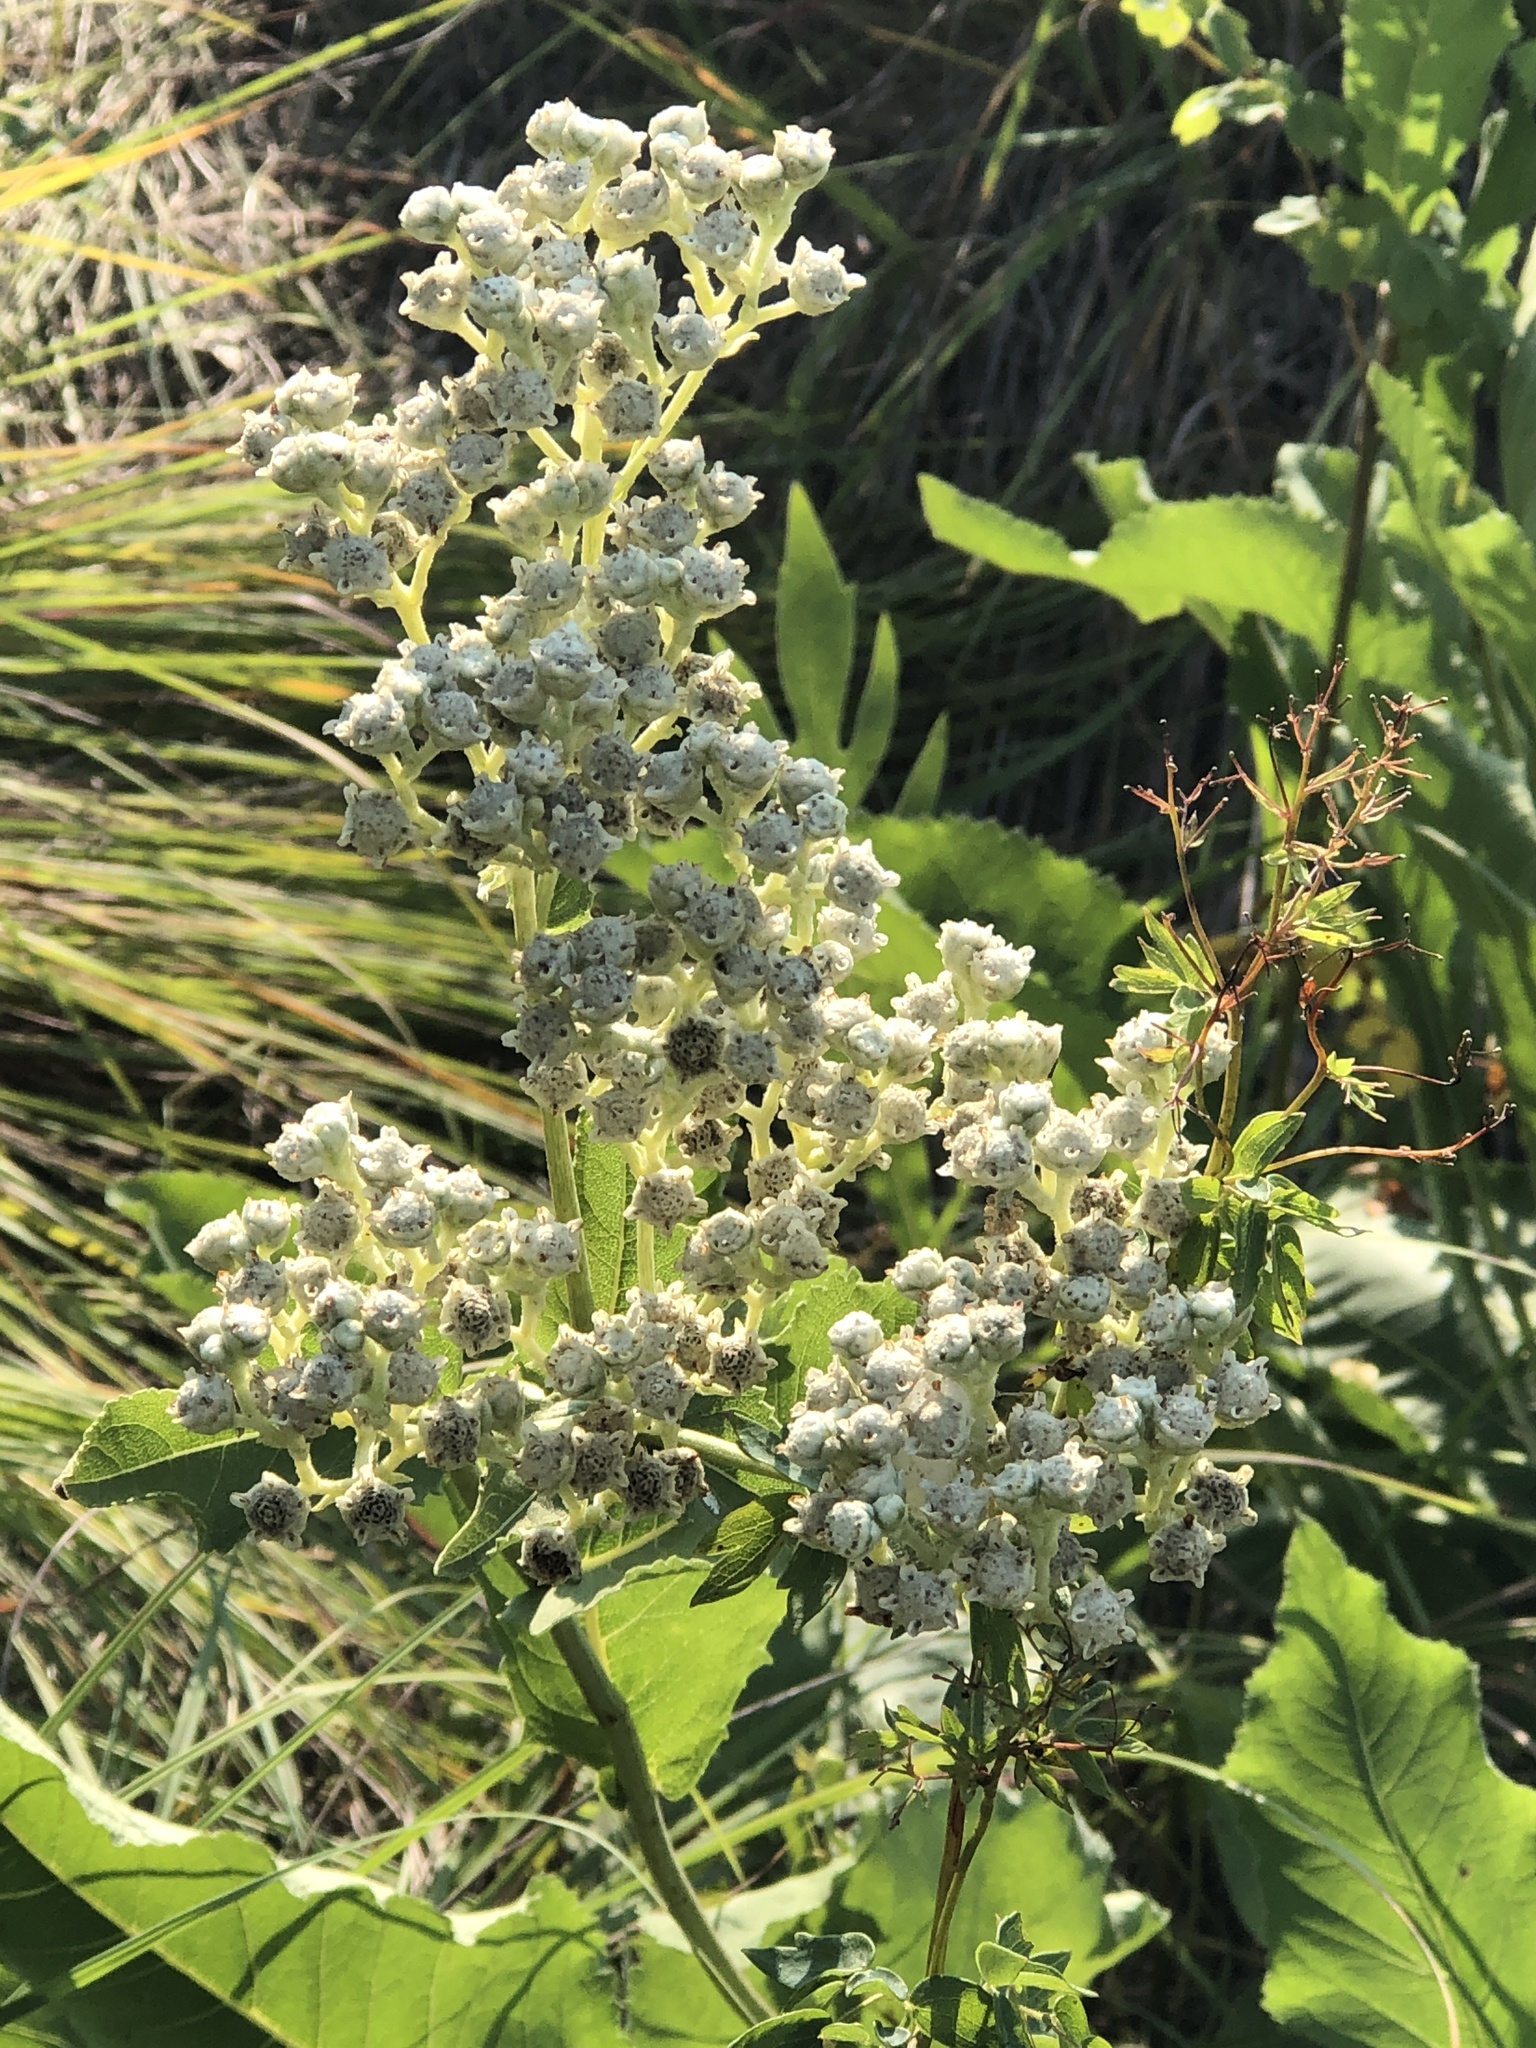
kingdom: Plantae
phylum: Tracheophyta
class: Magnoliopsida
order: Asterales
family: Asteraceae
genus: Parthenium
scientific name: Parthenium integrifolium
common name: American feverfew
